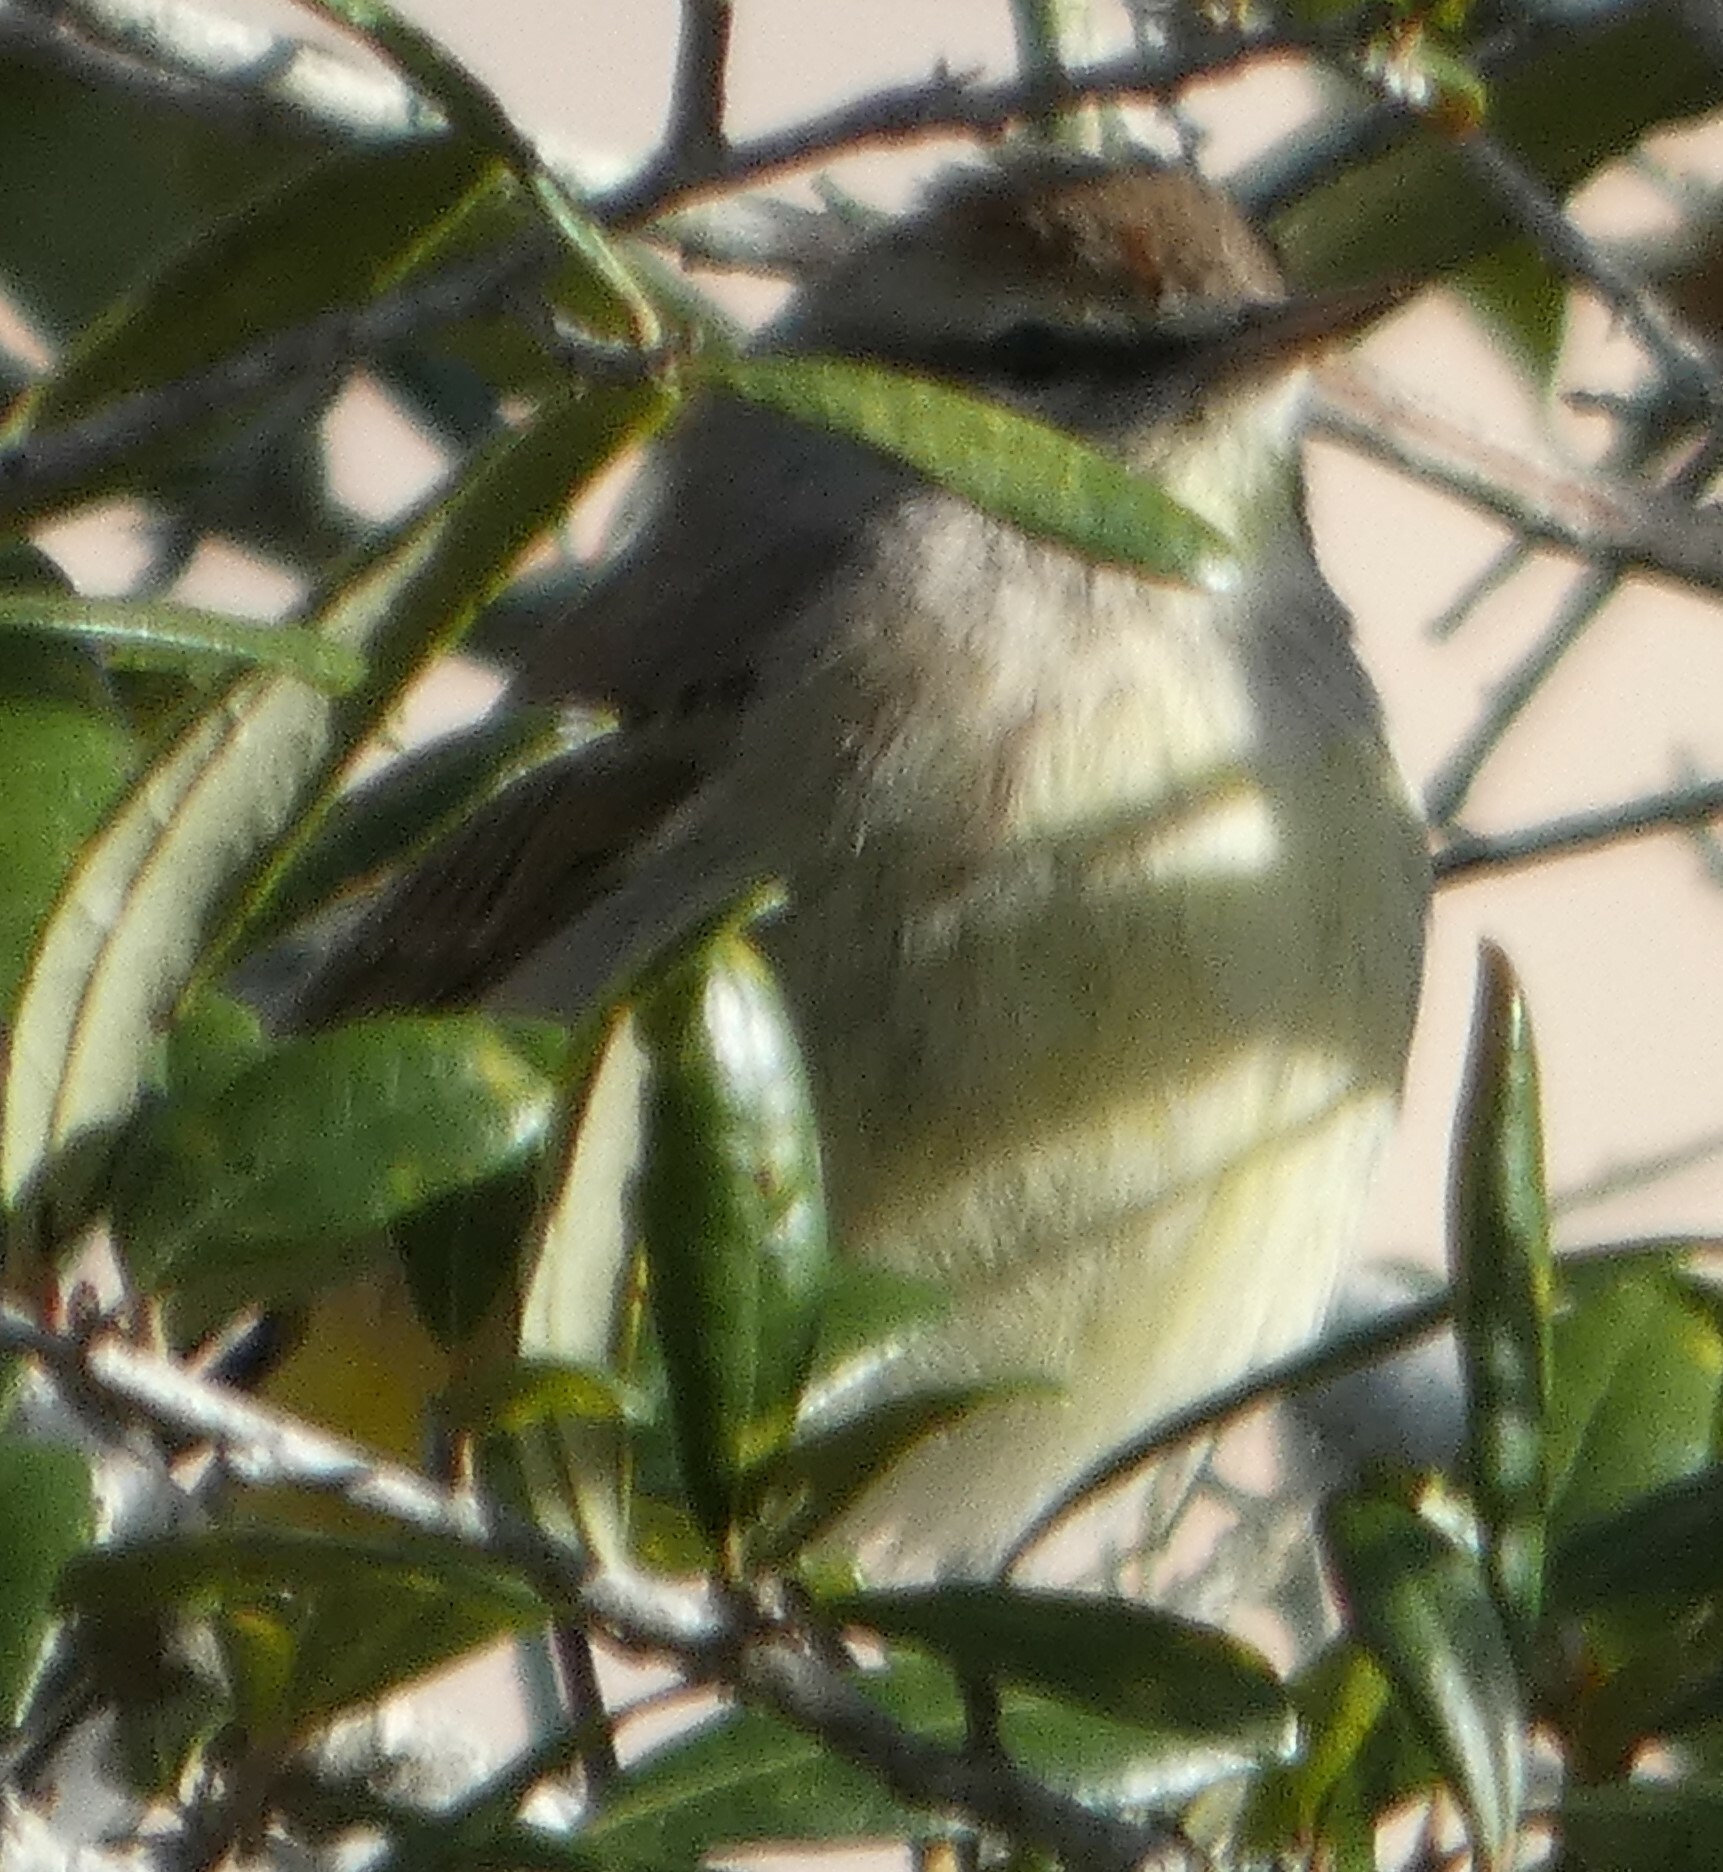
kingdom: Animalia
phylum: Chordata
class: Aves
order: Passeriformes
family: Parulidae
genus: Setophaga
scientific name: Setophaga palmarum
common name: Palm warbler
